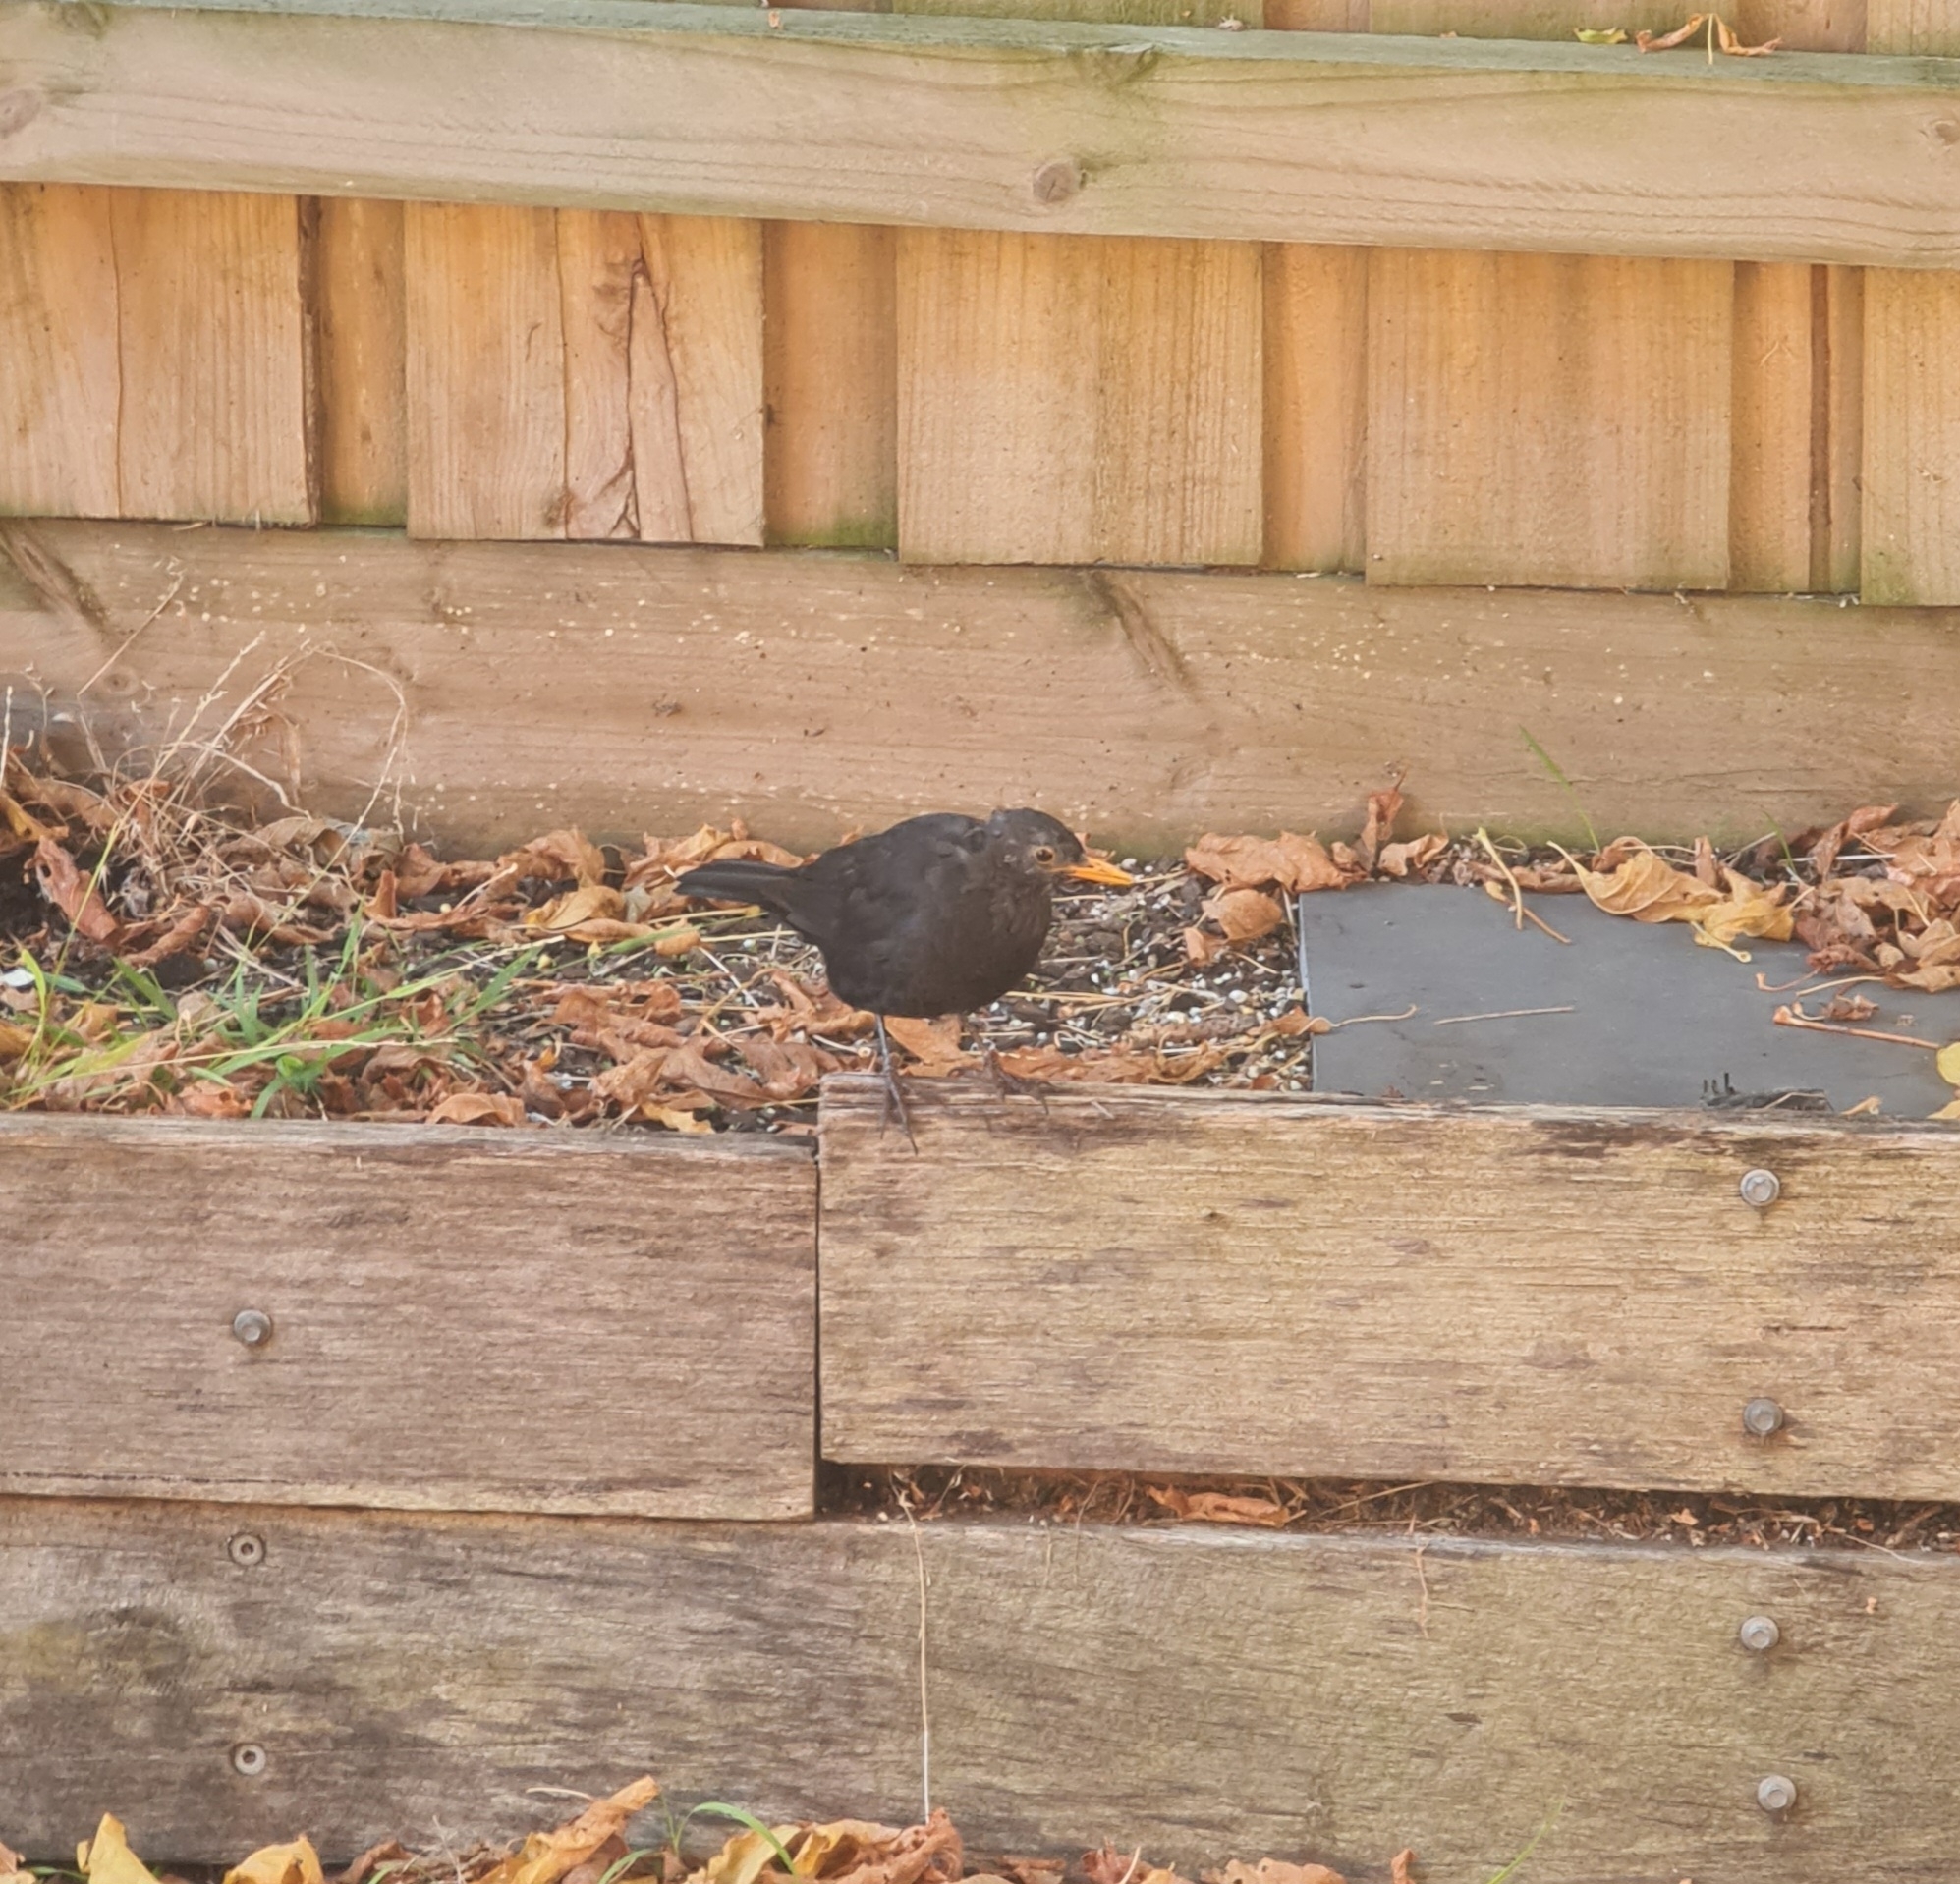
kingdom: Animalia
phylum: Chordata
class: Aves
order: Passeriformes
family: Turdidae
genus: Turdus
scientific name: Turdus merula
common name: Common blackbird
